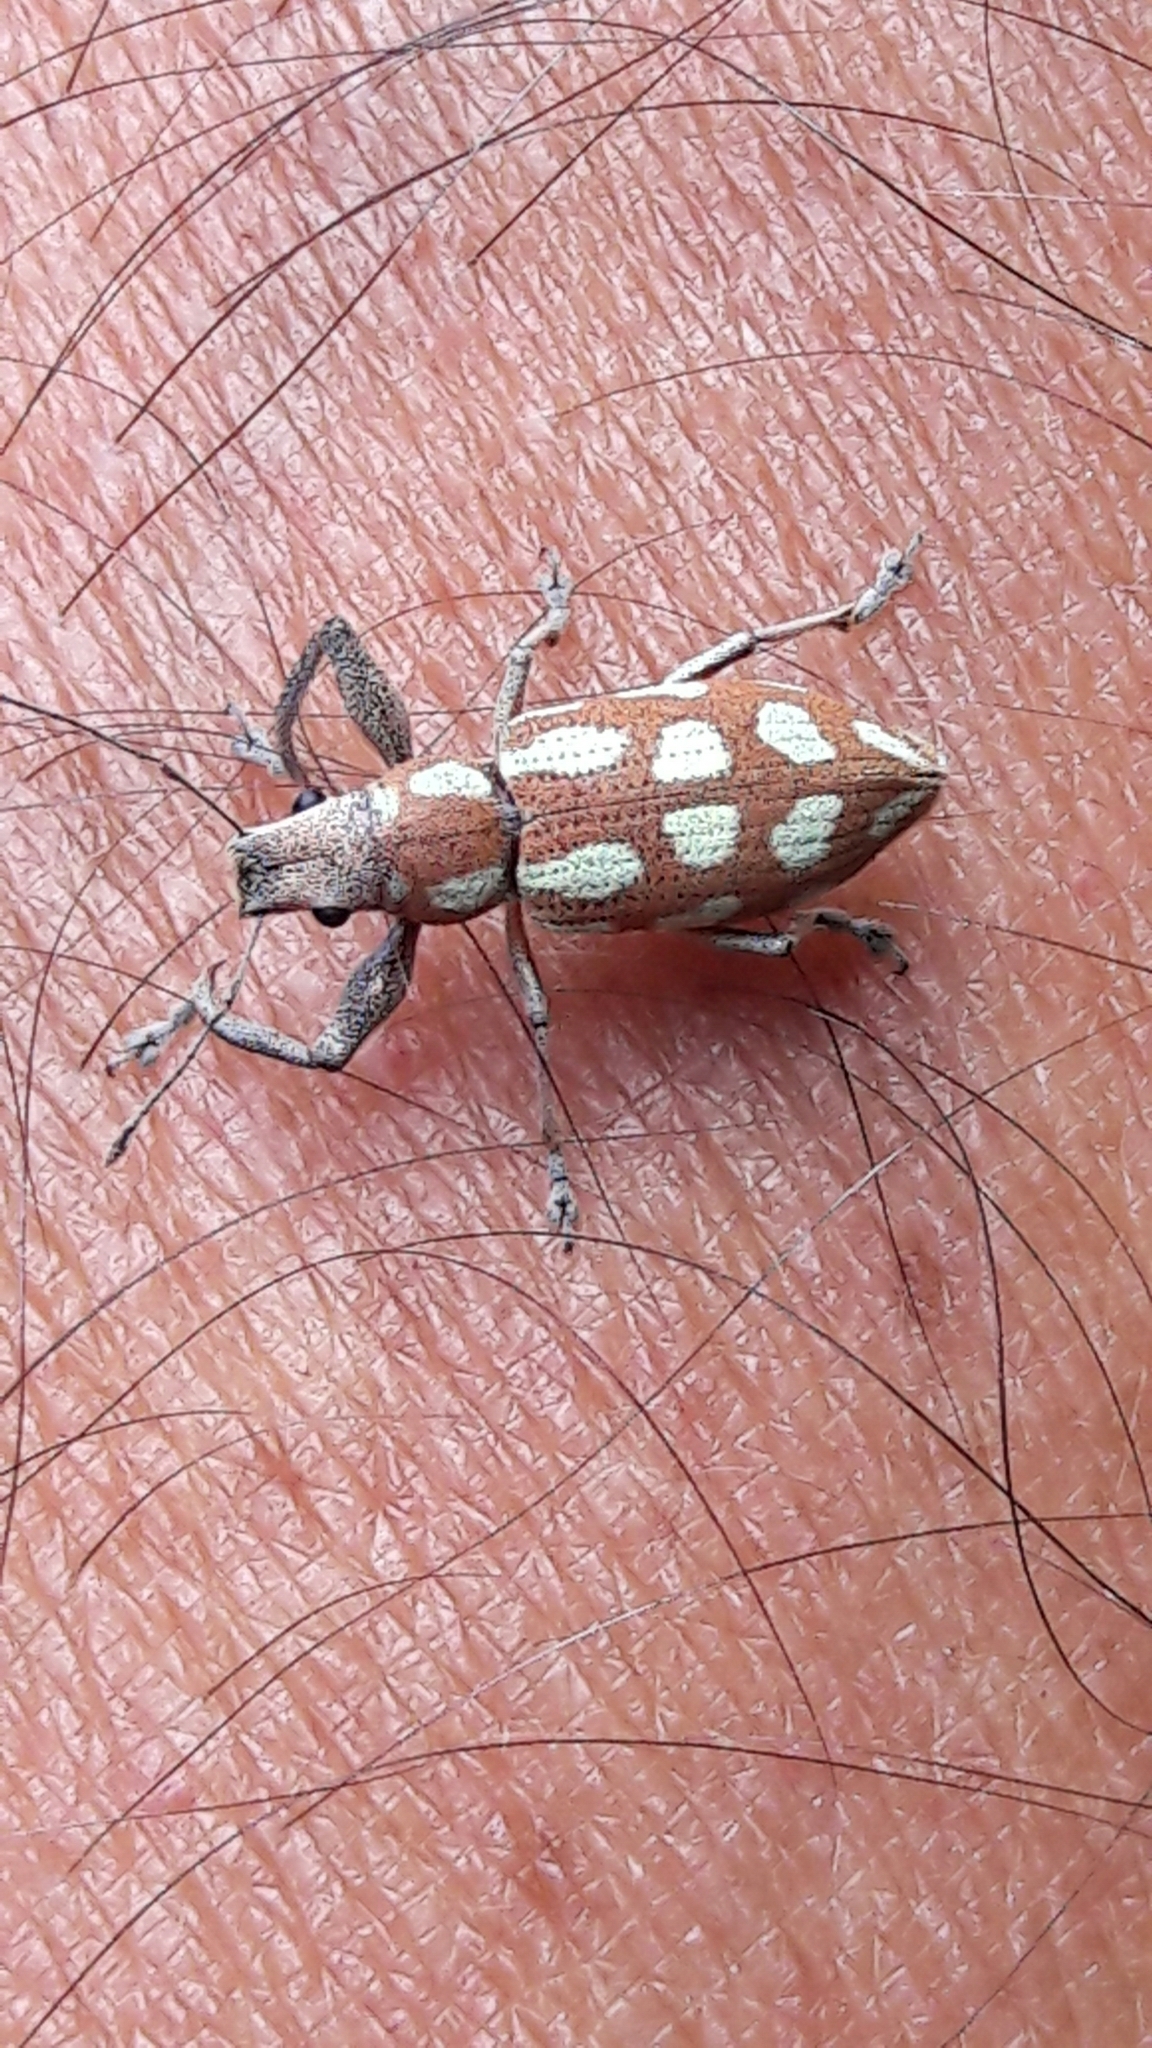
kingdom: Animalia
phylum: Arthropoda
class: Insecta
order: Coleoptera
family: Curculionidae
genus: Naupactus
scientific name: Naupactus bellus
